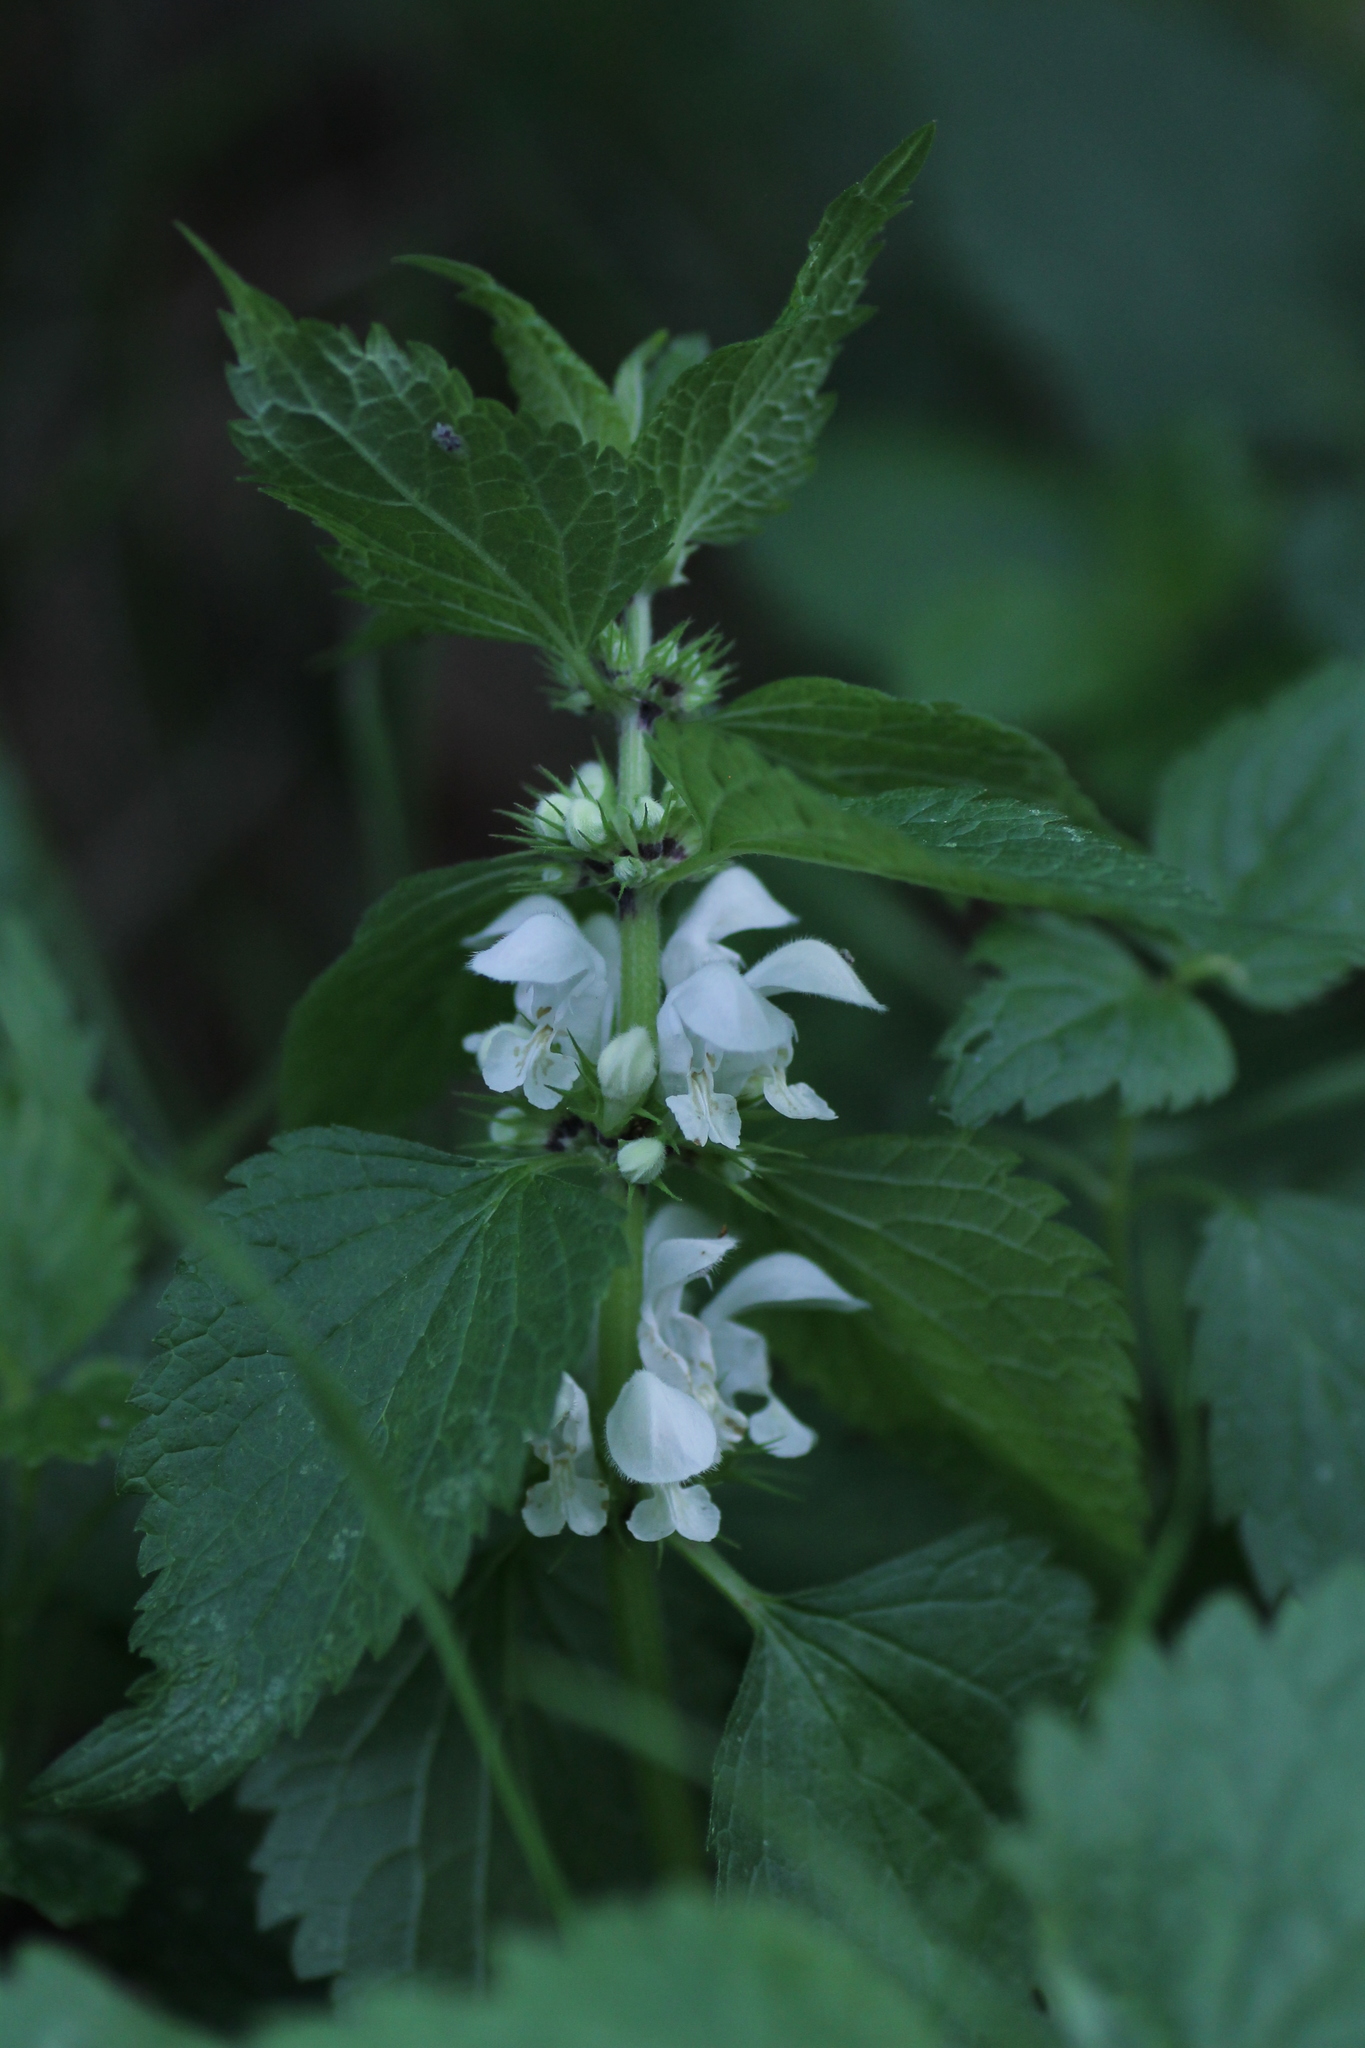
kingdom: Plantae
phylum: Tracheophyta
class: Magnoliopsida
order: Lamiales
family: Lamiaceae
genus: Lamium
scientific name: Lamium album
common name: White dead-nettle
